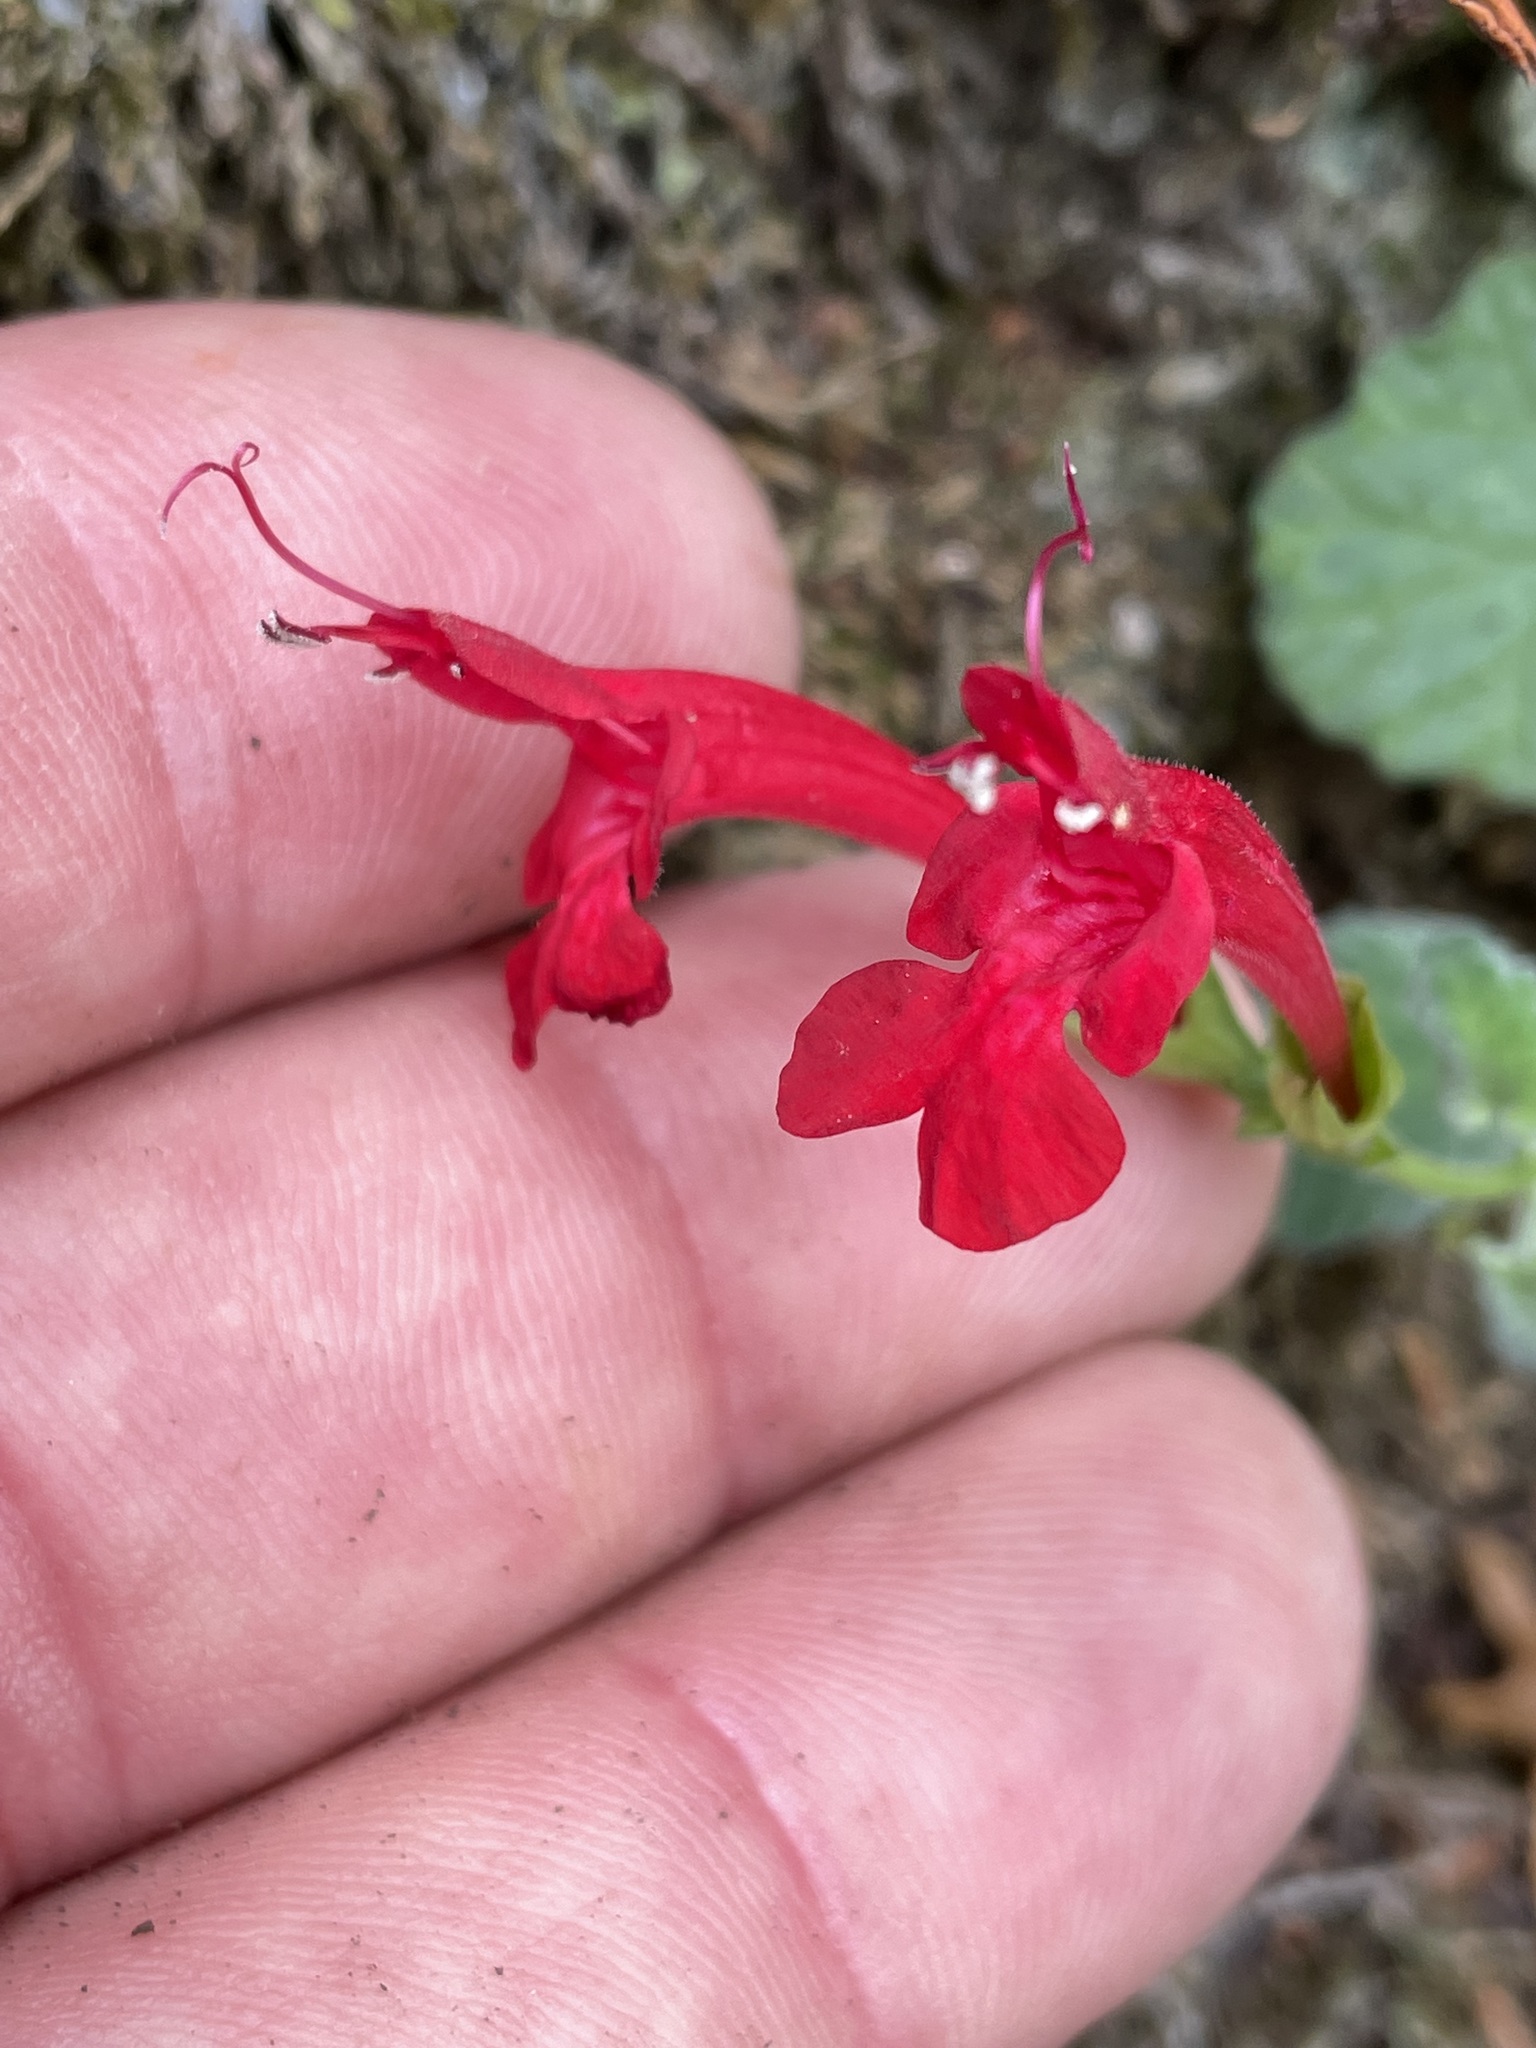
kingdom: Plantae
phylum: Tracheophyta
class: Magnoliopsida
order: Lamiales
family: Lamiaceae
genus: Salvia
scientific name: Salvia roemeriana
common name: Cedar sage
